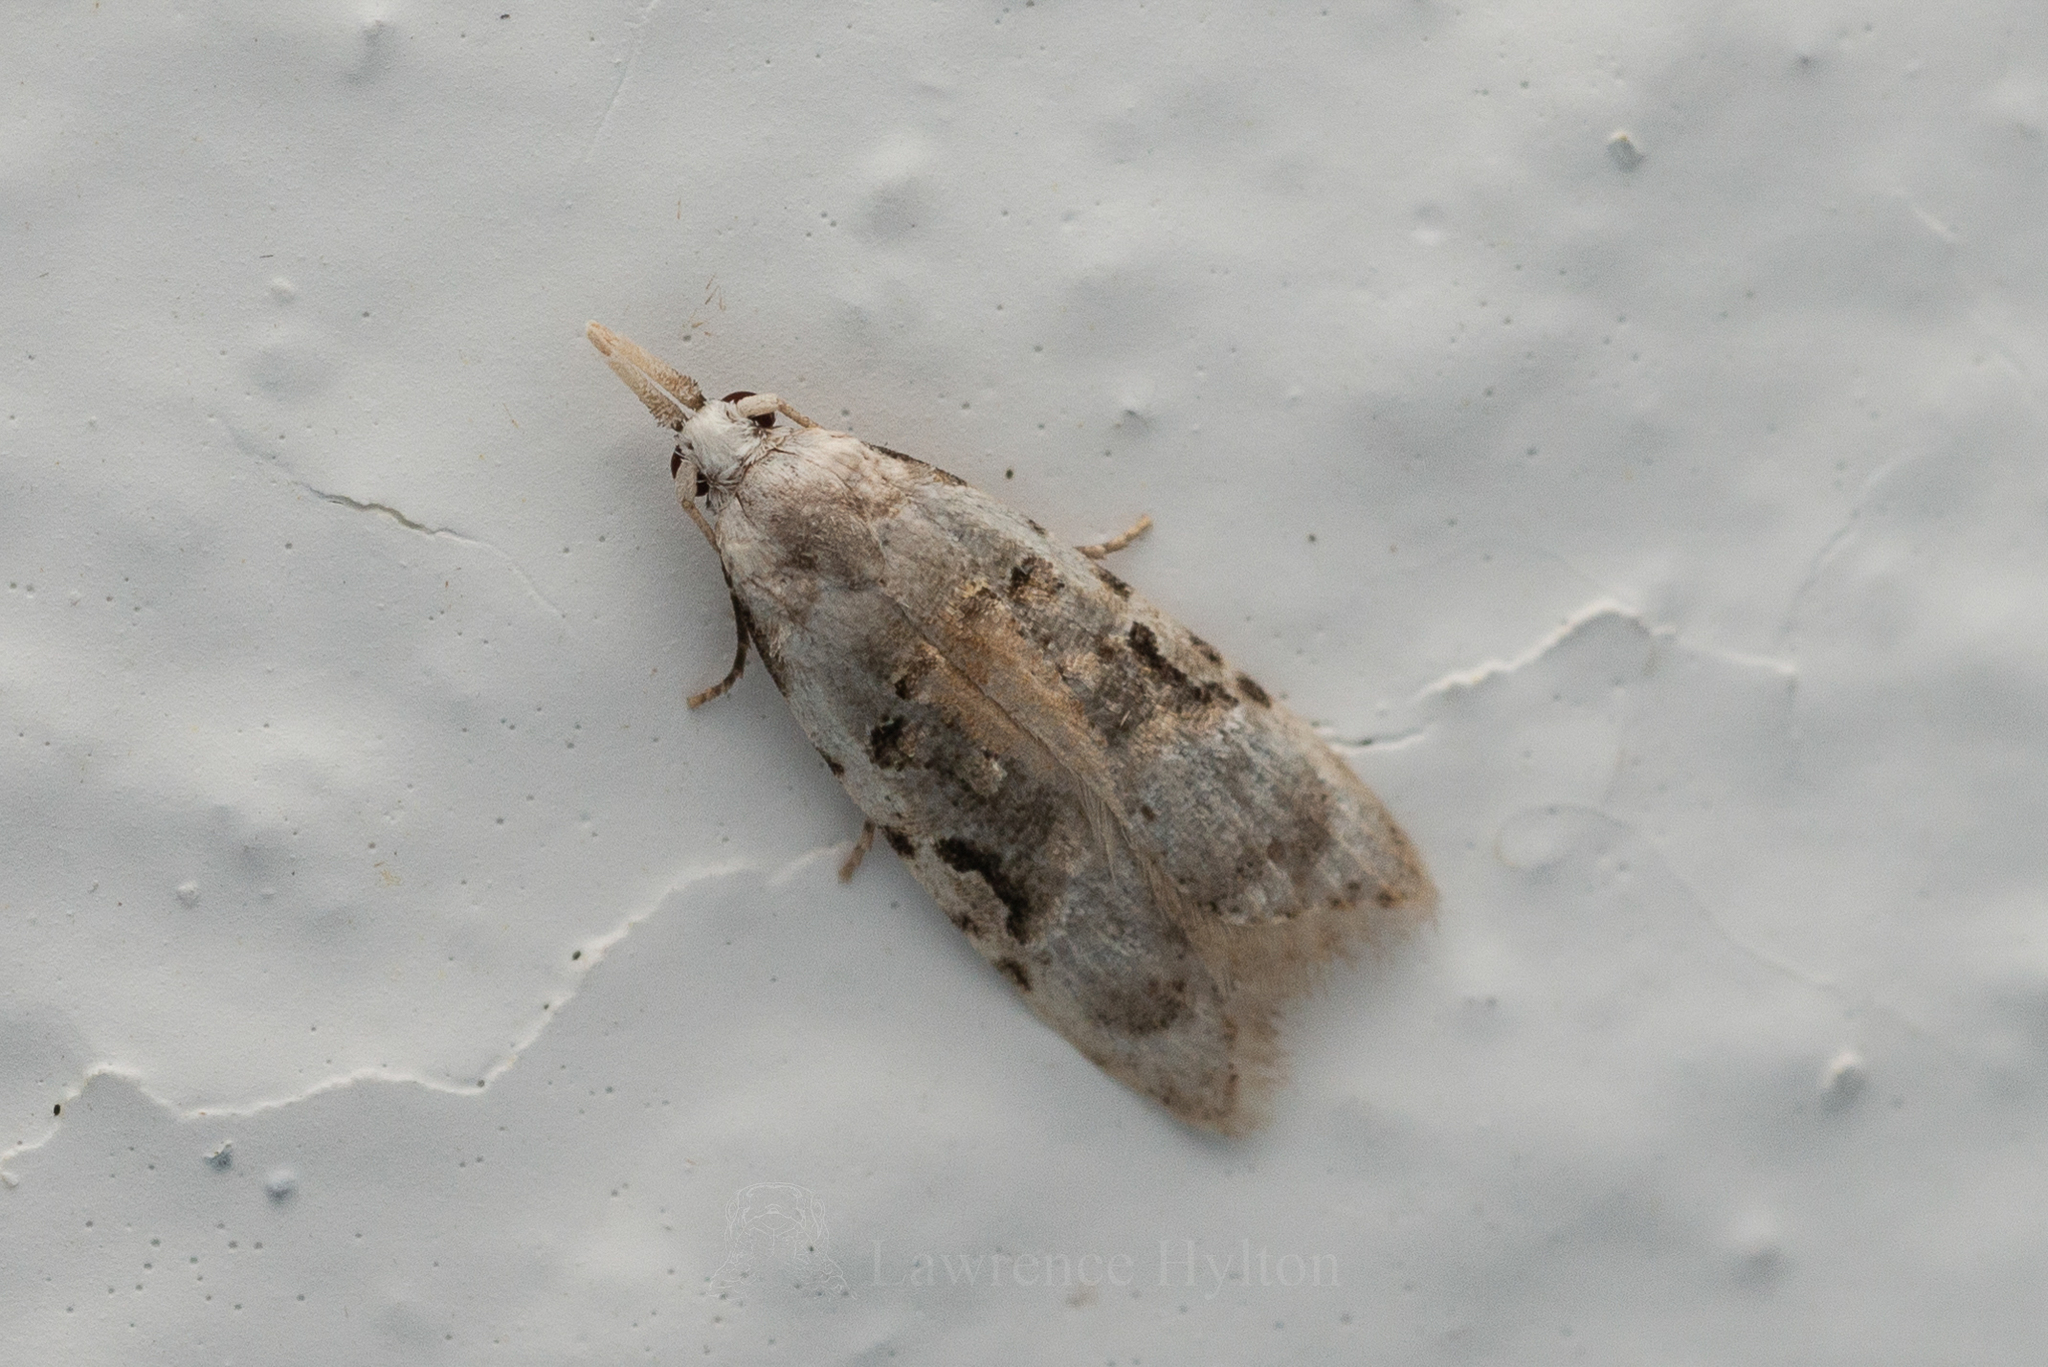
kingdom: Animalia
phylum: Arthropoda
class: Insecta
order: Lepidoptera
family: Carposinidae
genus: Metacosmesis
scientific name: Metacosmesis laxeuta
